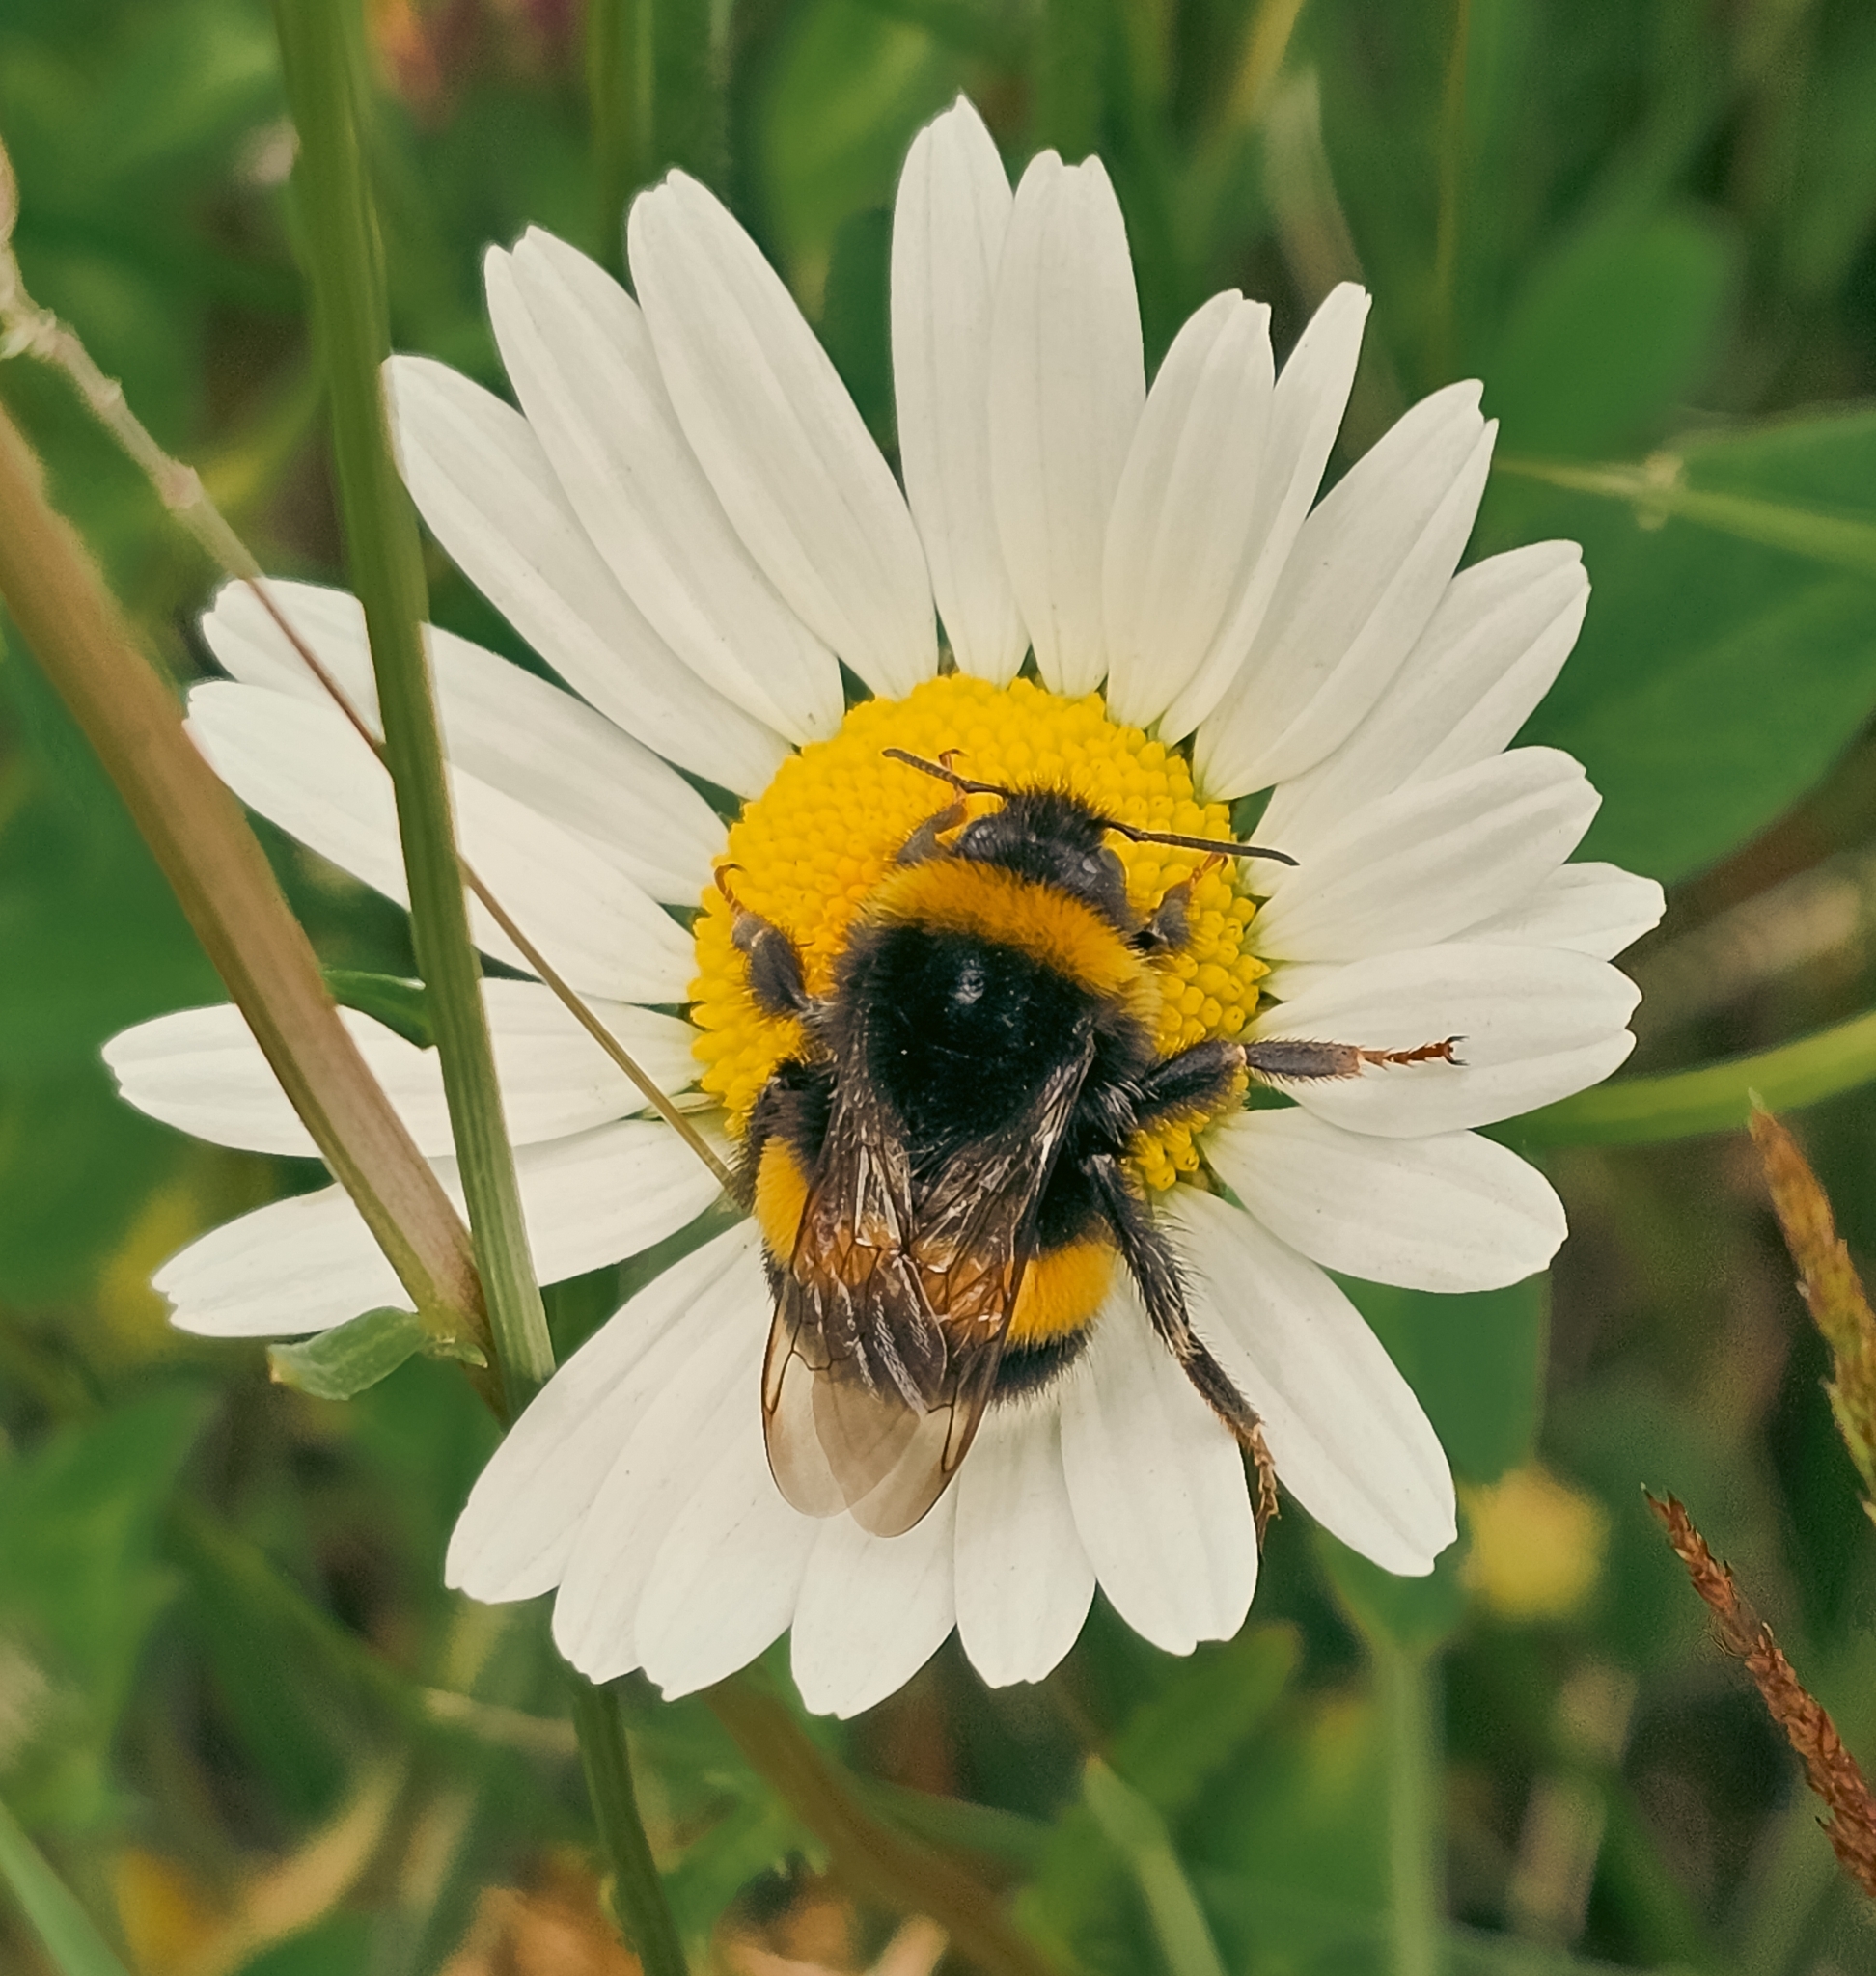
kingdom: Animalia
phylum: Arthropoda
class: Insecta
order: Hymenoptera
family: Apidae
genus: Bombus
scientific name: Bombus terrestris
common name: Buff-tailed bumblebee
